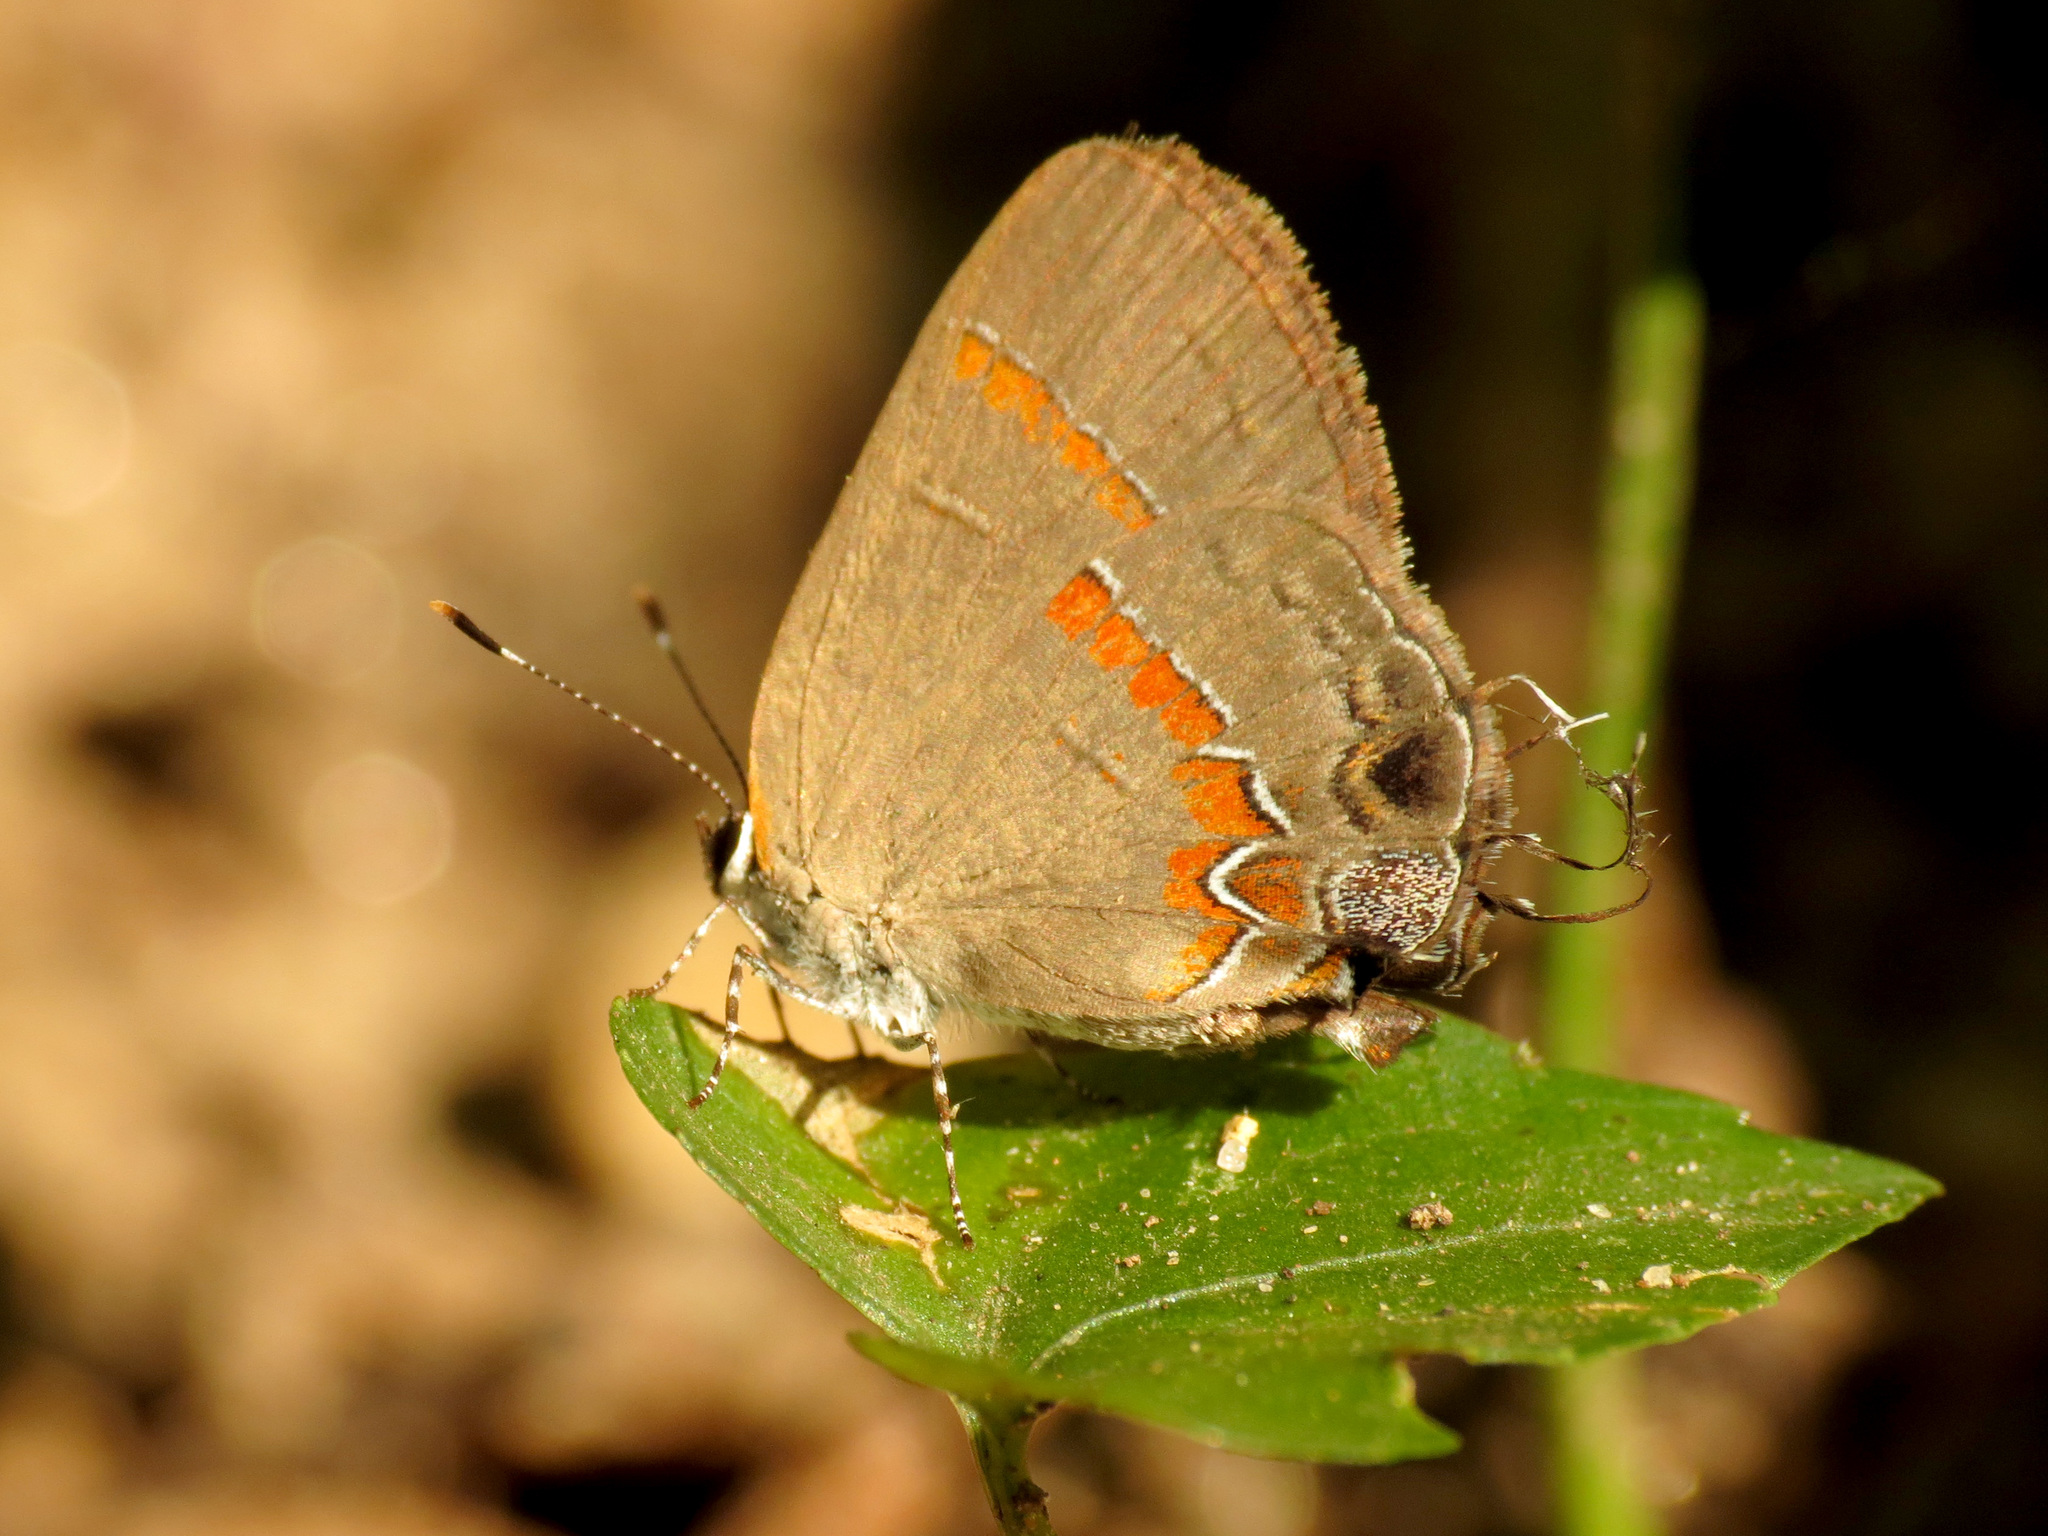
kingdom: Animalia
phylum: Arthropoda
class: Insecta
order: Lepidoptera
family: Lycaenidae
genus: Calycopis
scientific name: Calycopis cecrops
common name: Red-banded hairstreak
